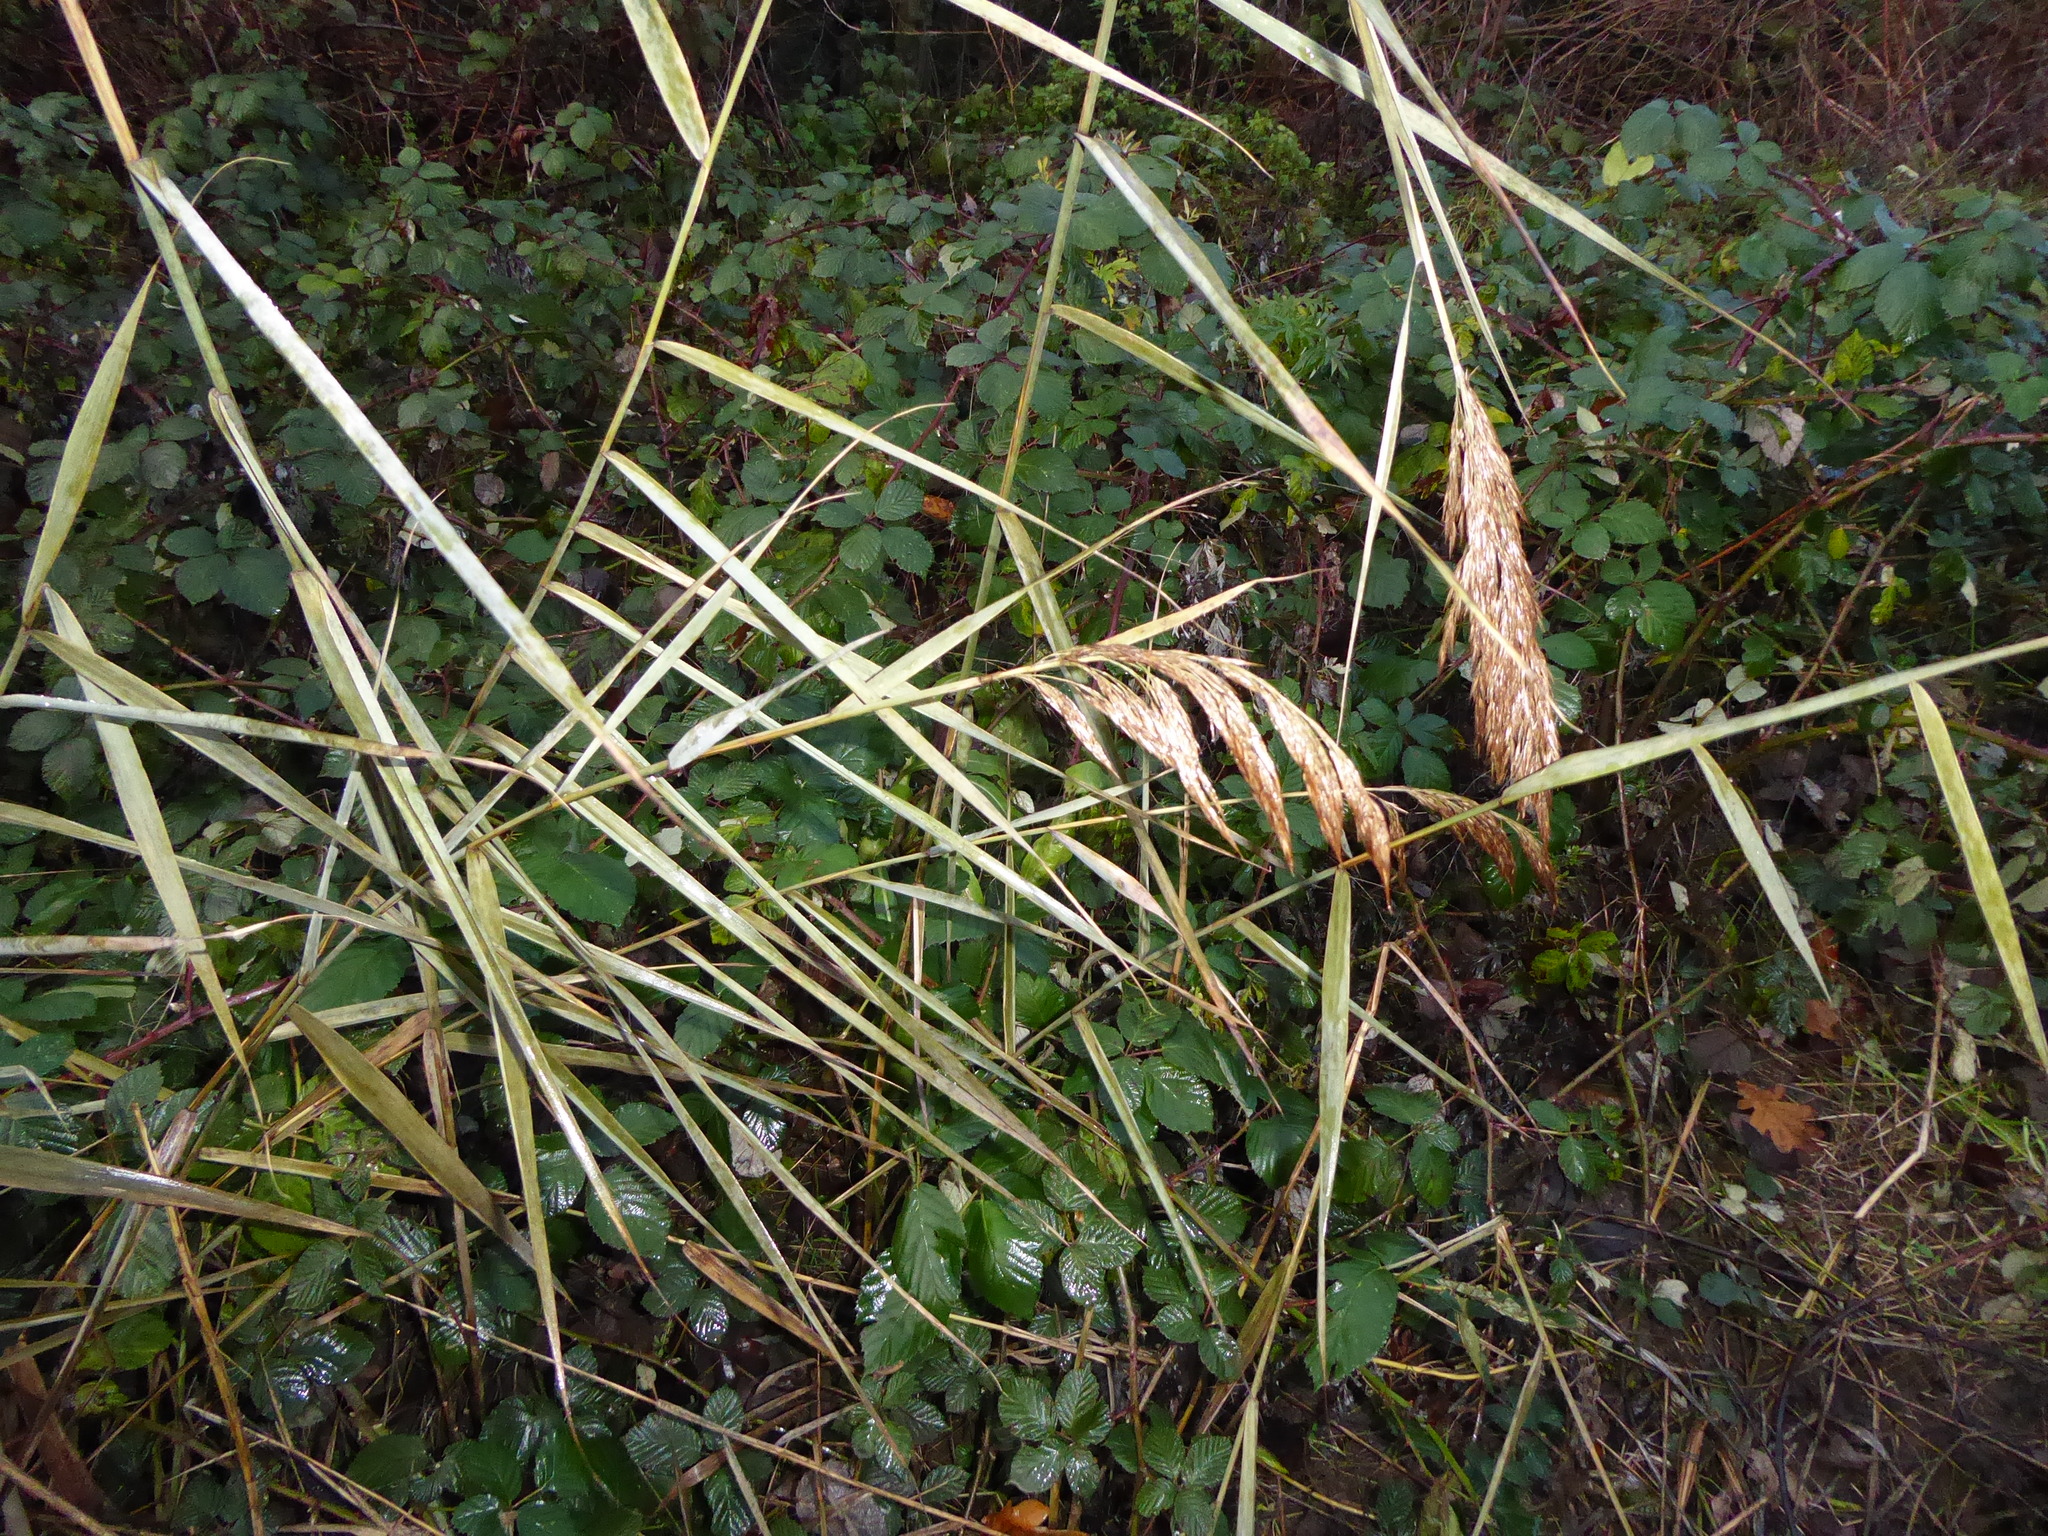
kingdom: Plantae
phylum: Tracheophyta
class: Liliopsida
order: Poales
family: Poaceae
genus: Phragmites
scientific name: Phragmites australis
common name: Common reed
